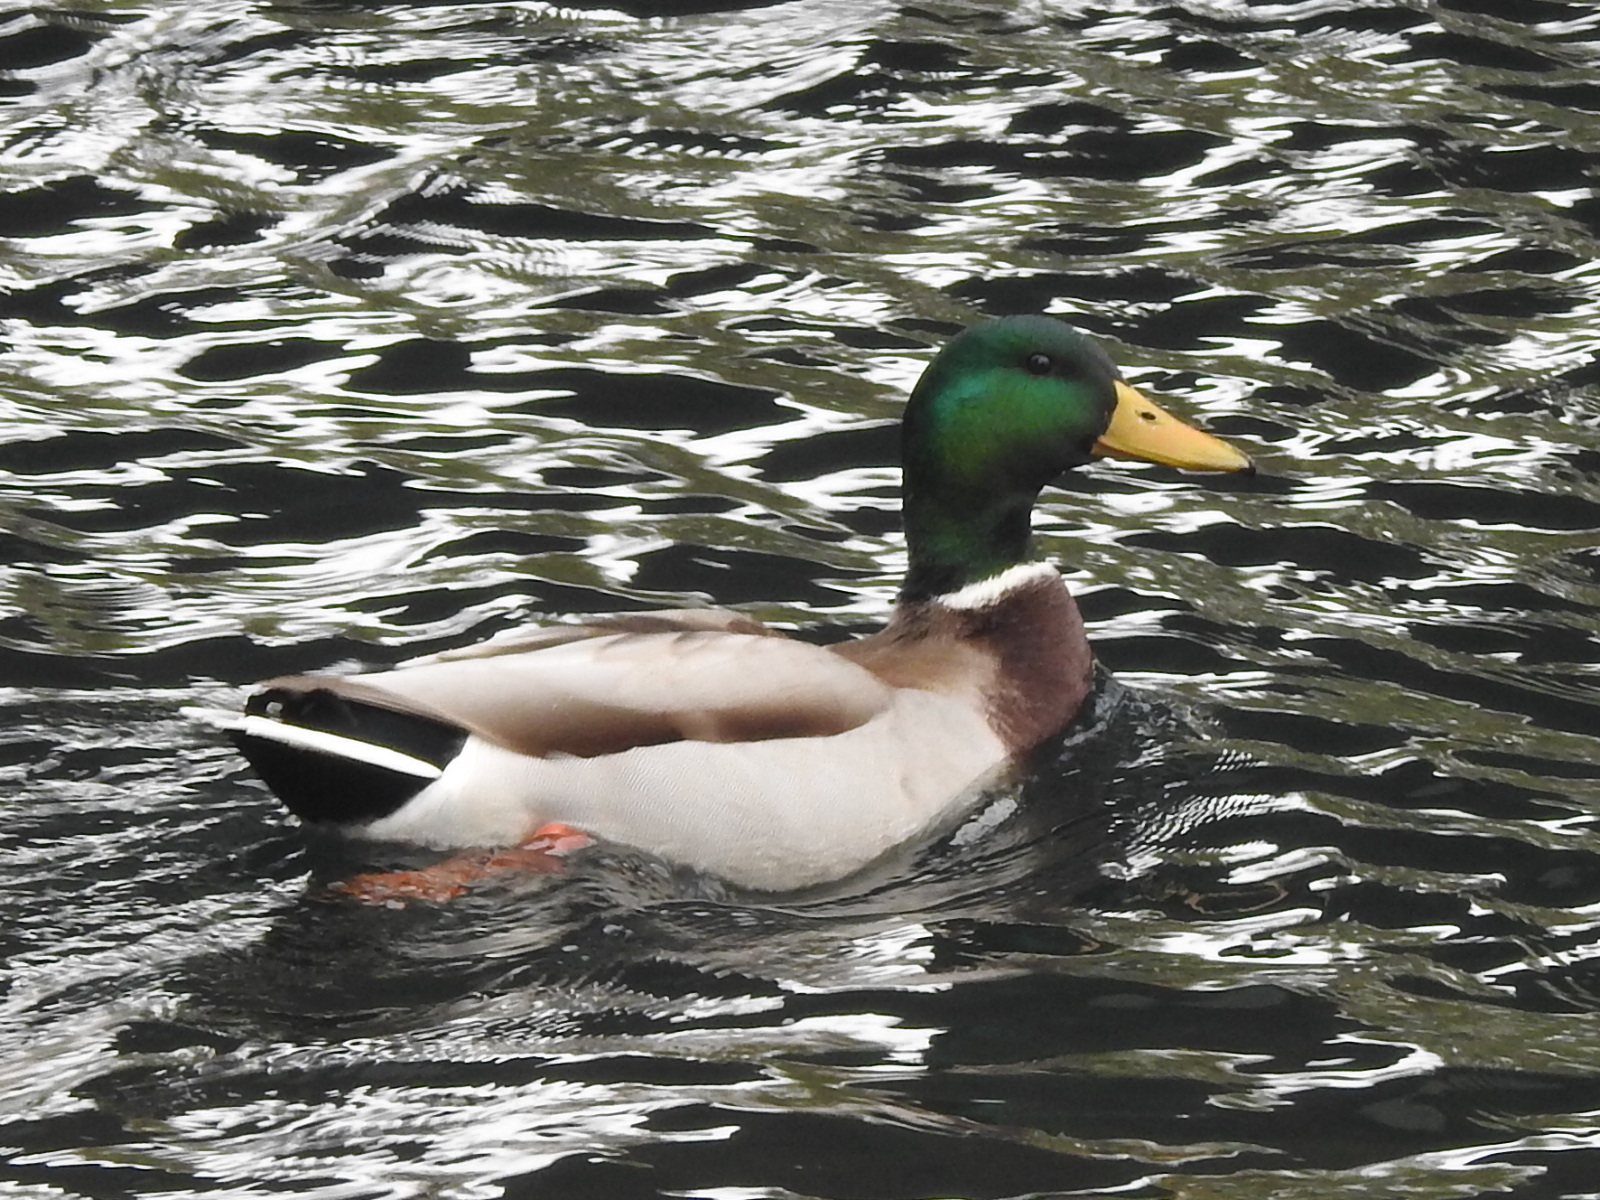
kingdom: Animalia
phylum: Chordata
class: Aves
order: Anseriformes
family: Anatidae
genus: Anas
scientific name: Anas platyrhynchos
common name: Mallard
